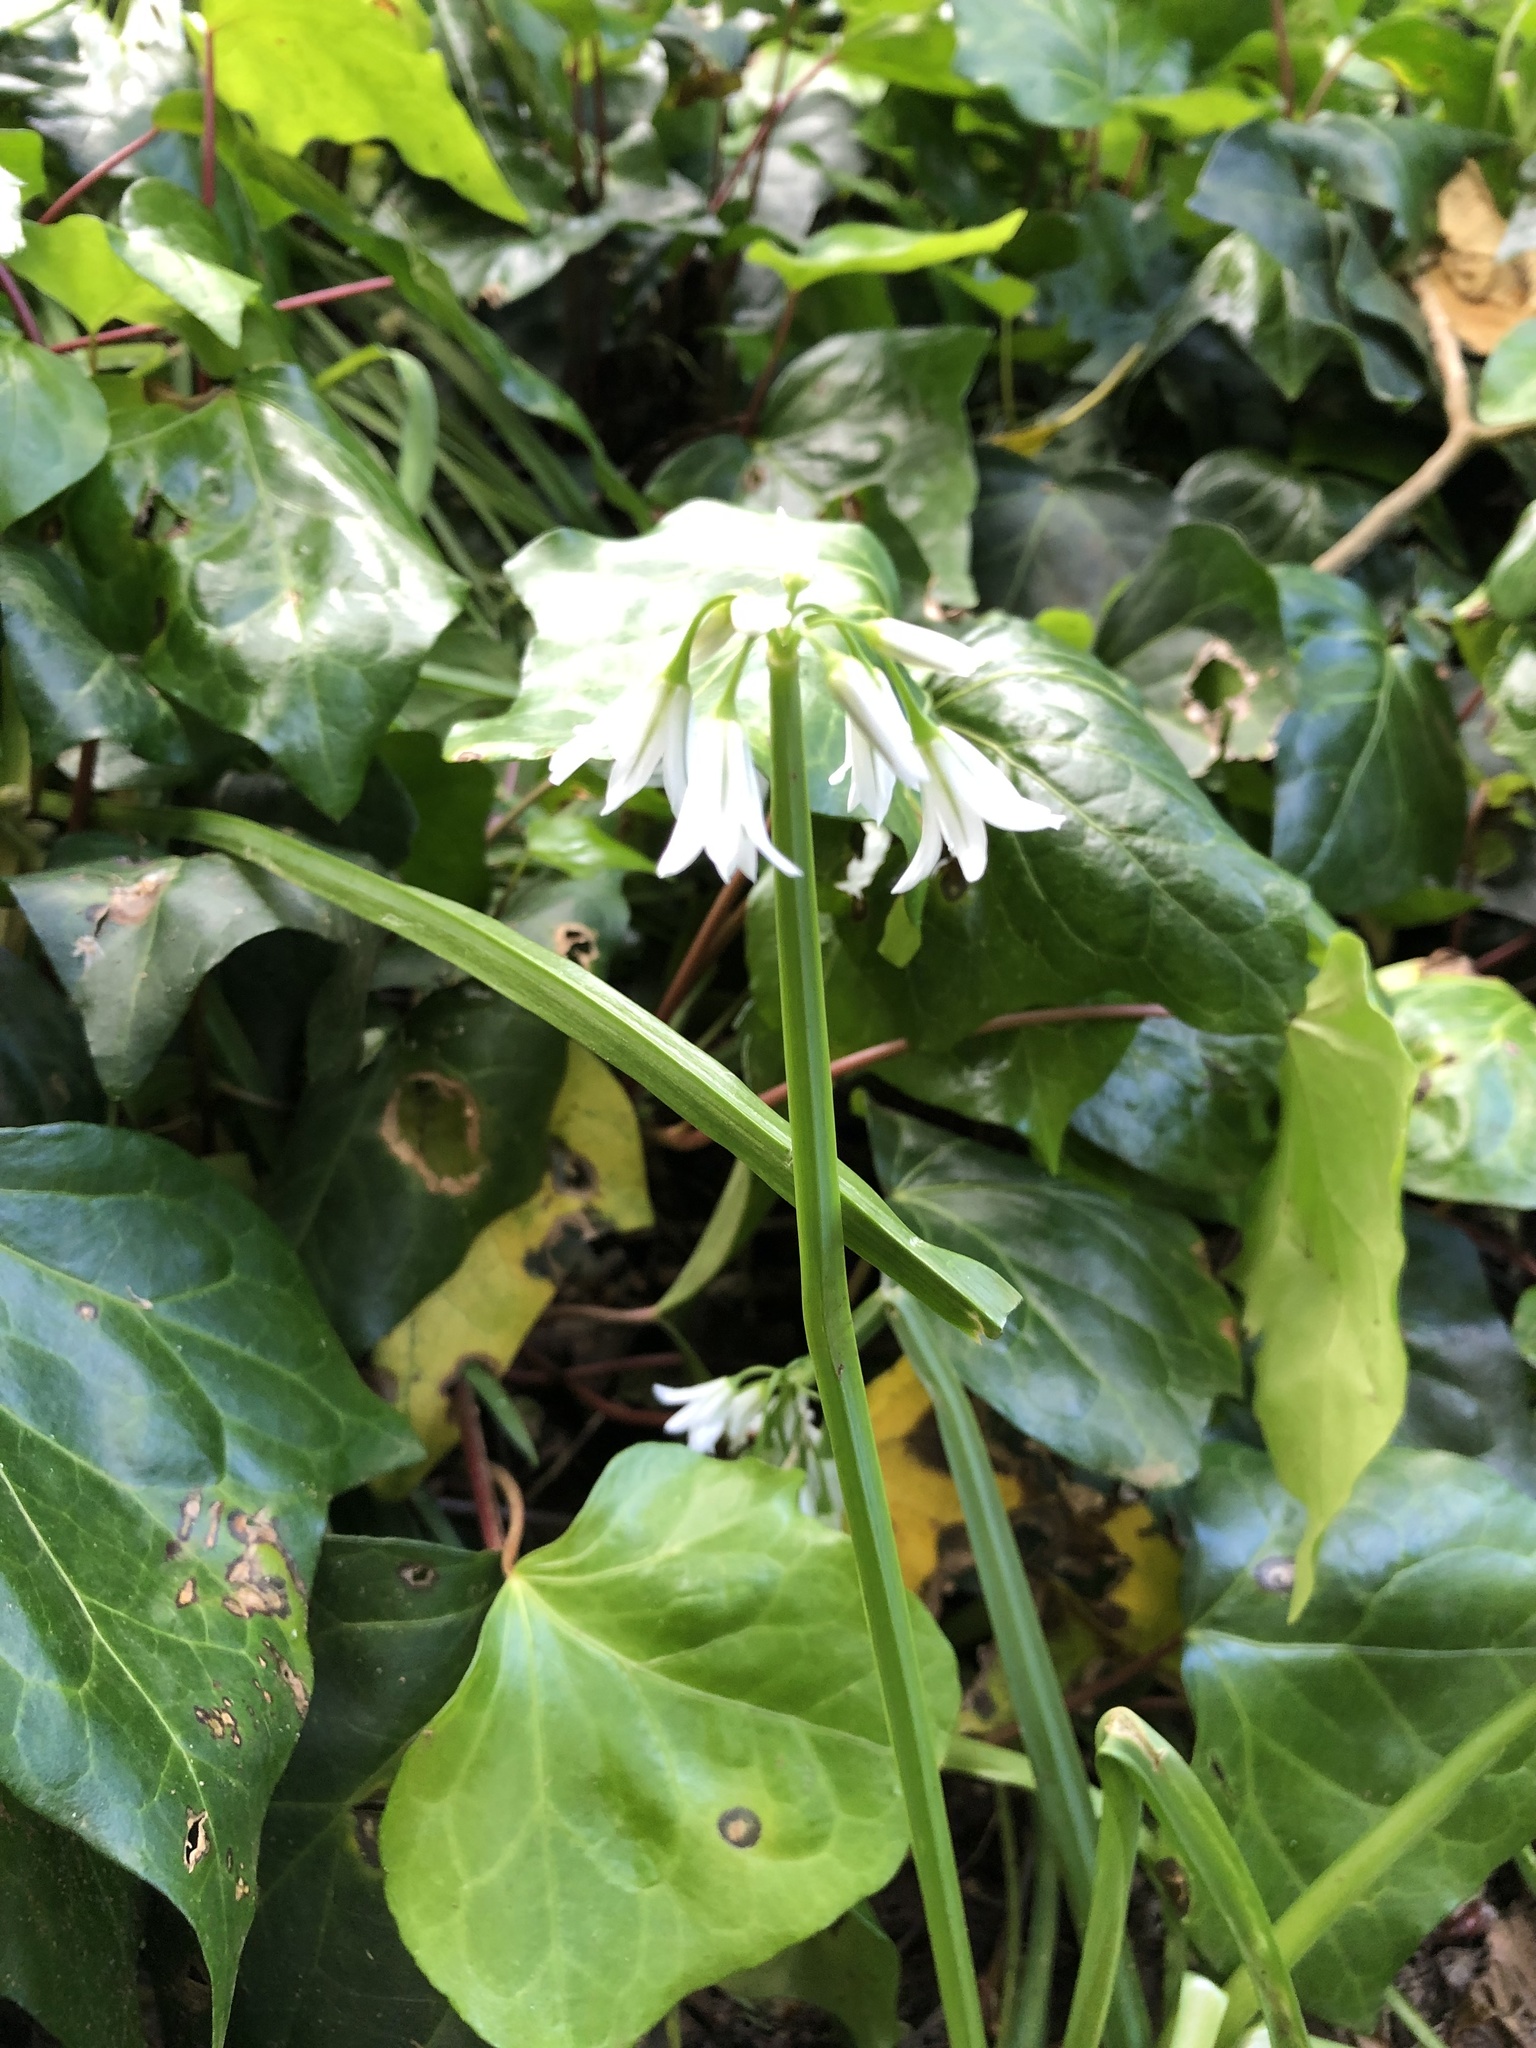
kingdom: Plantae
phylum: Tracheophyta
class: Liliopsida
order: Asparagales
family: Amaryllidaceae
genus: Allium
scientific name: Allium triquetrum
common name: Three-cornered garlic
